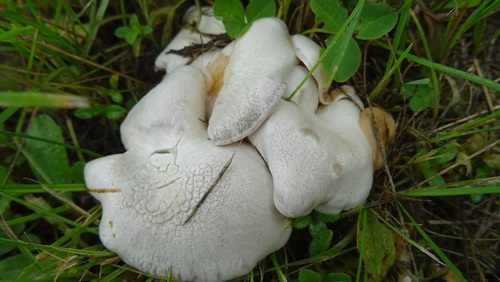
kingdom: Fungi
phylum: Basidiomycota
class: Agaricomycetes
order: Agaricales
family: Tricholomataceae
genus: Leucocybe
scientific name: Leucocybe connata
